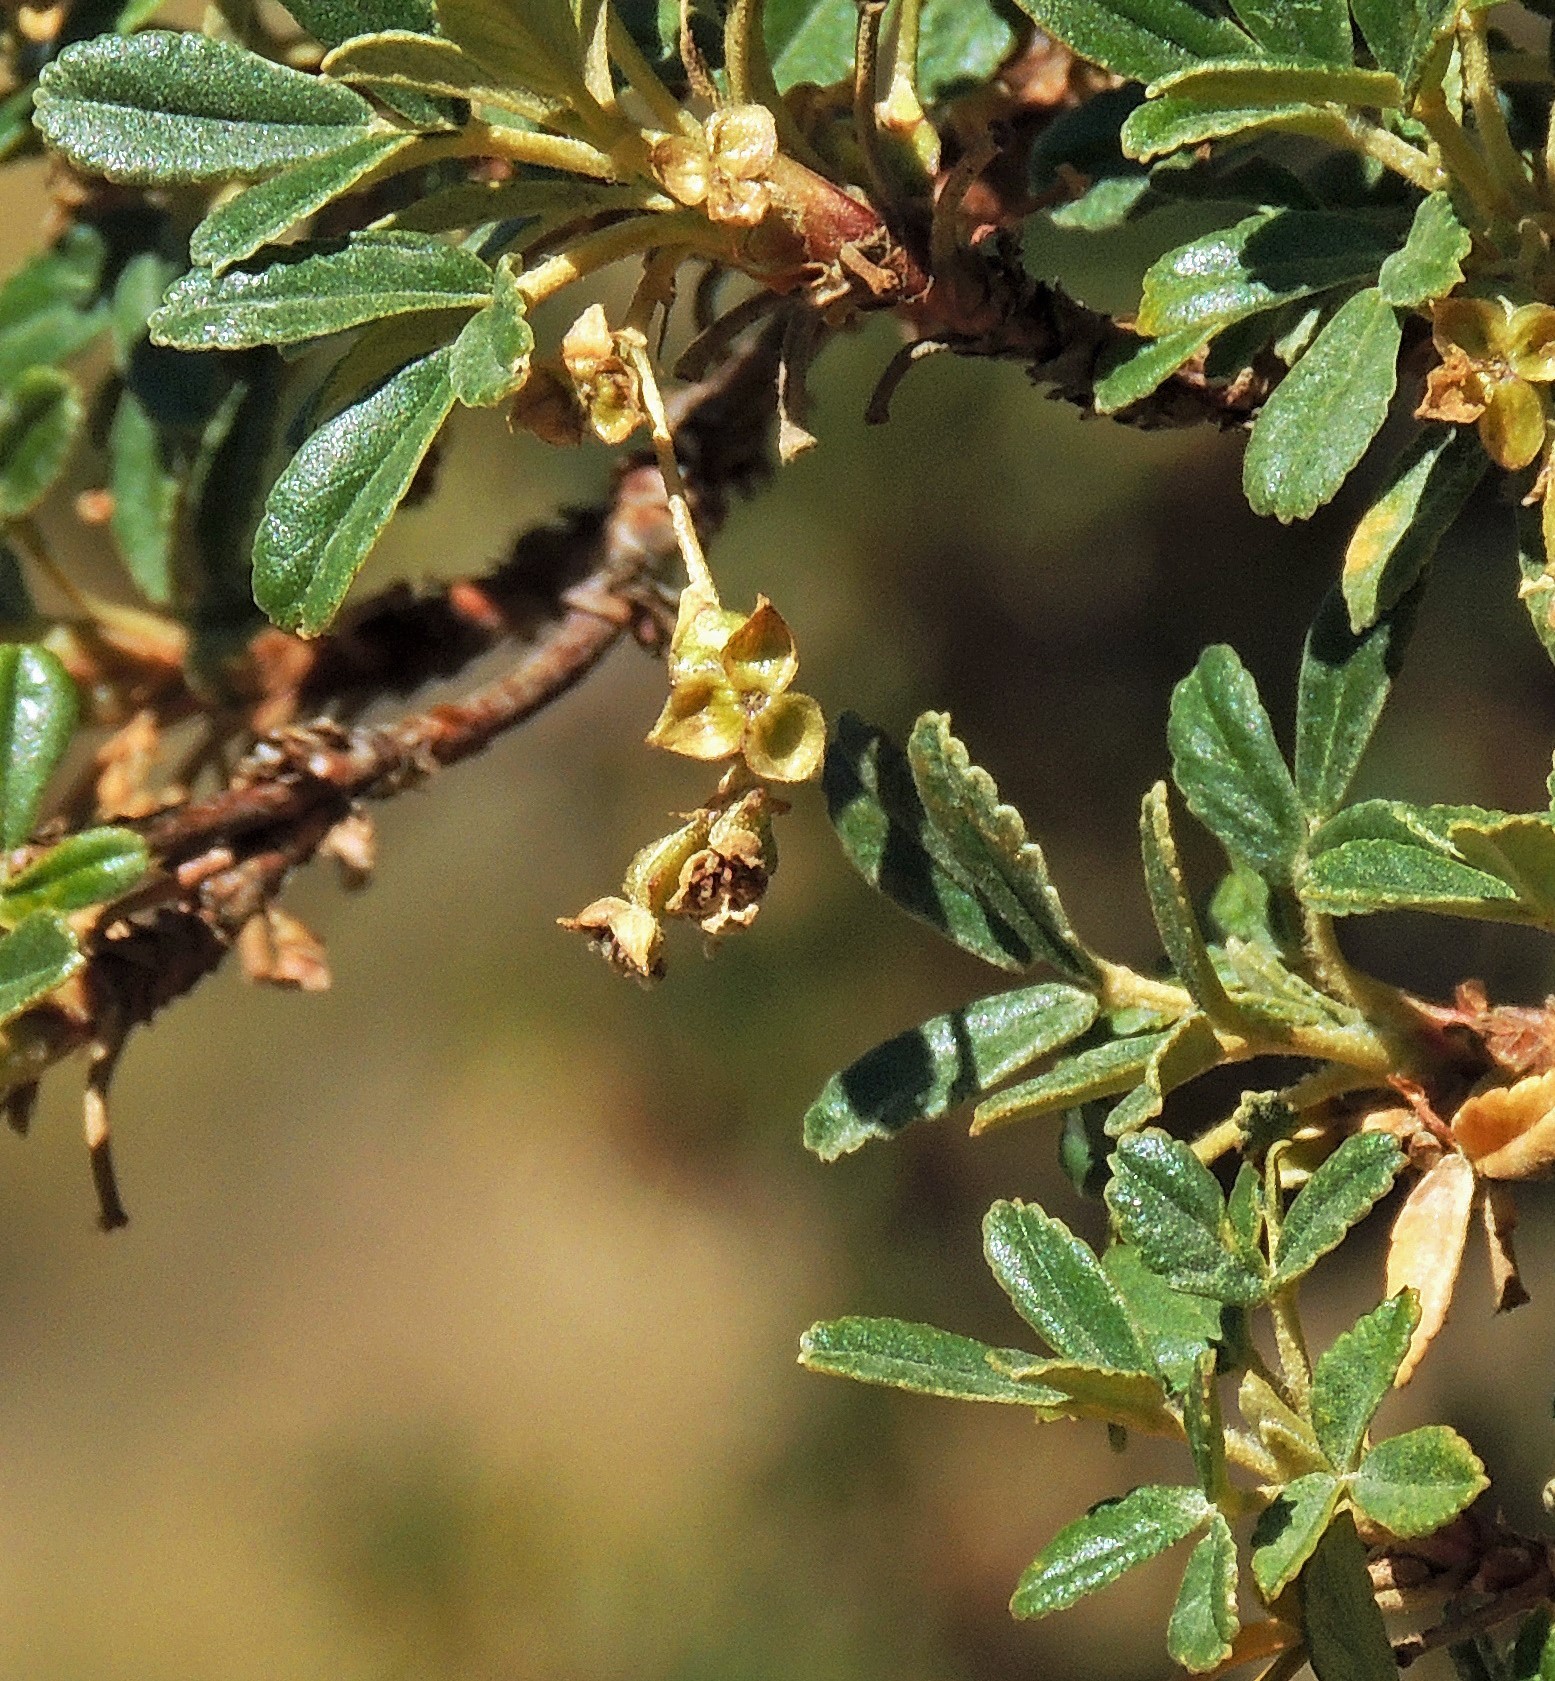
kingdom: Plantae
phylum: Tracheophyta
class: Magnoliopsida
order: Rosales
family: Rosaceae
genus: Polylepis
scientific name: Polylepis tomentella
